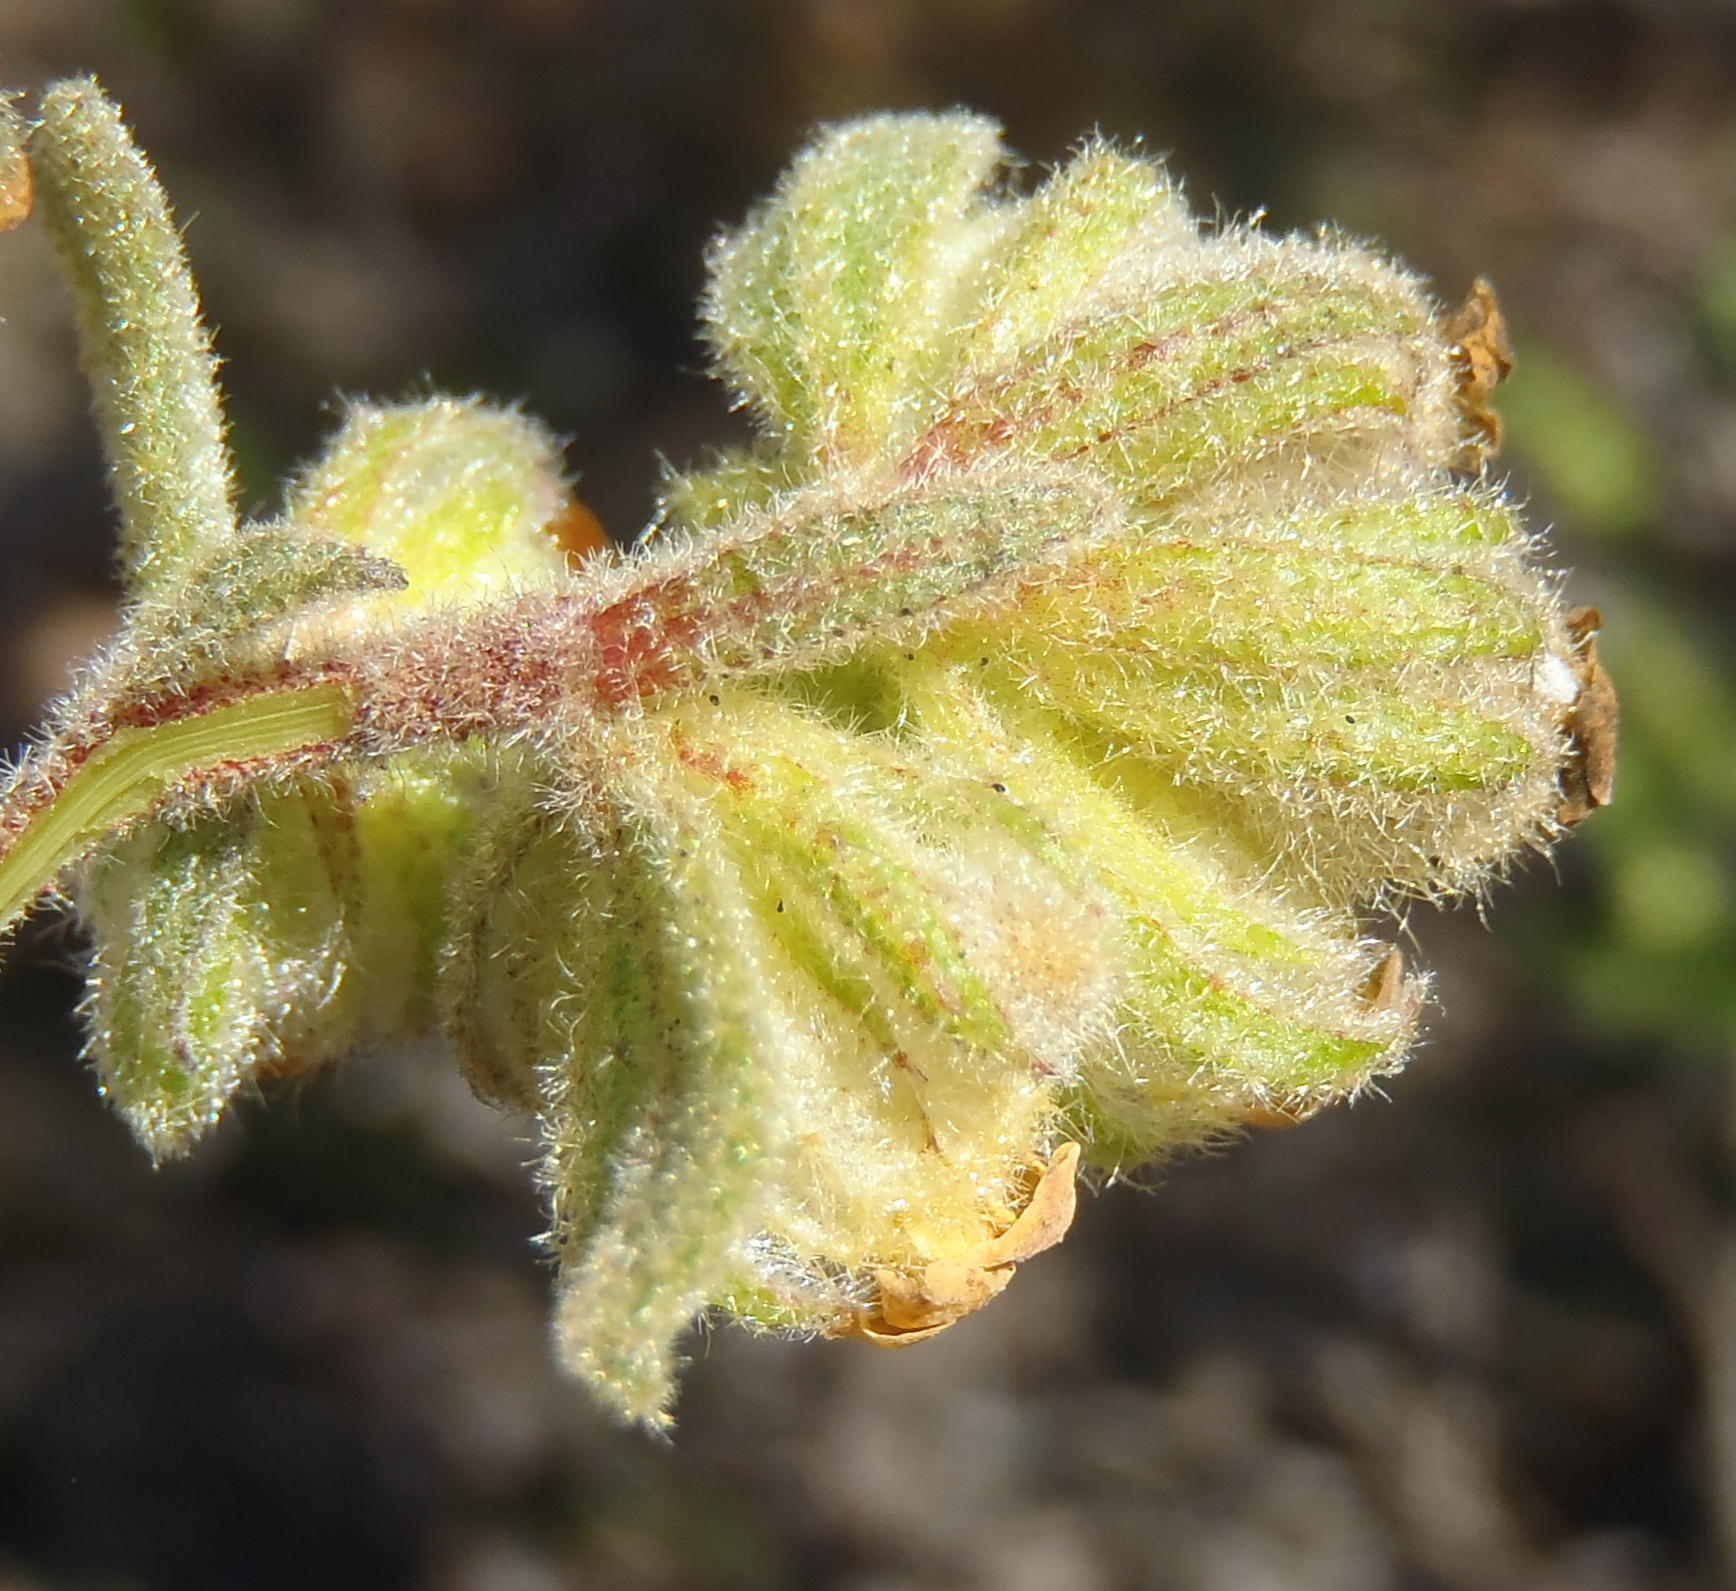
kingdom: Plantae
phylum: Tracheophyta
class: Magnoliopsida
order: Malvales
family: Malvaceae
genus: Hermannia
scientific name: Hermannia salviifolia
